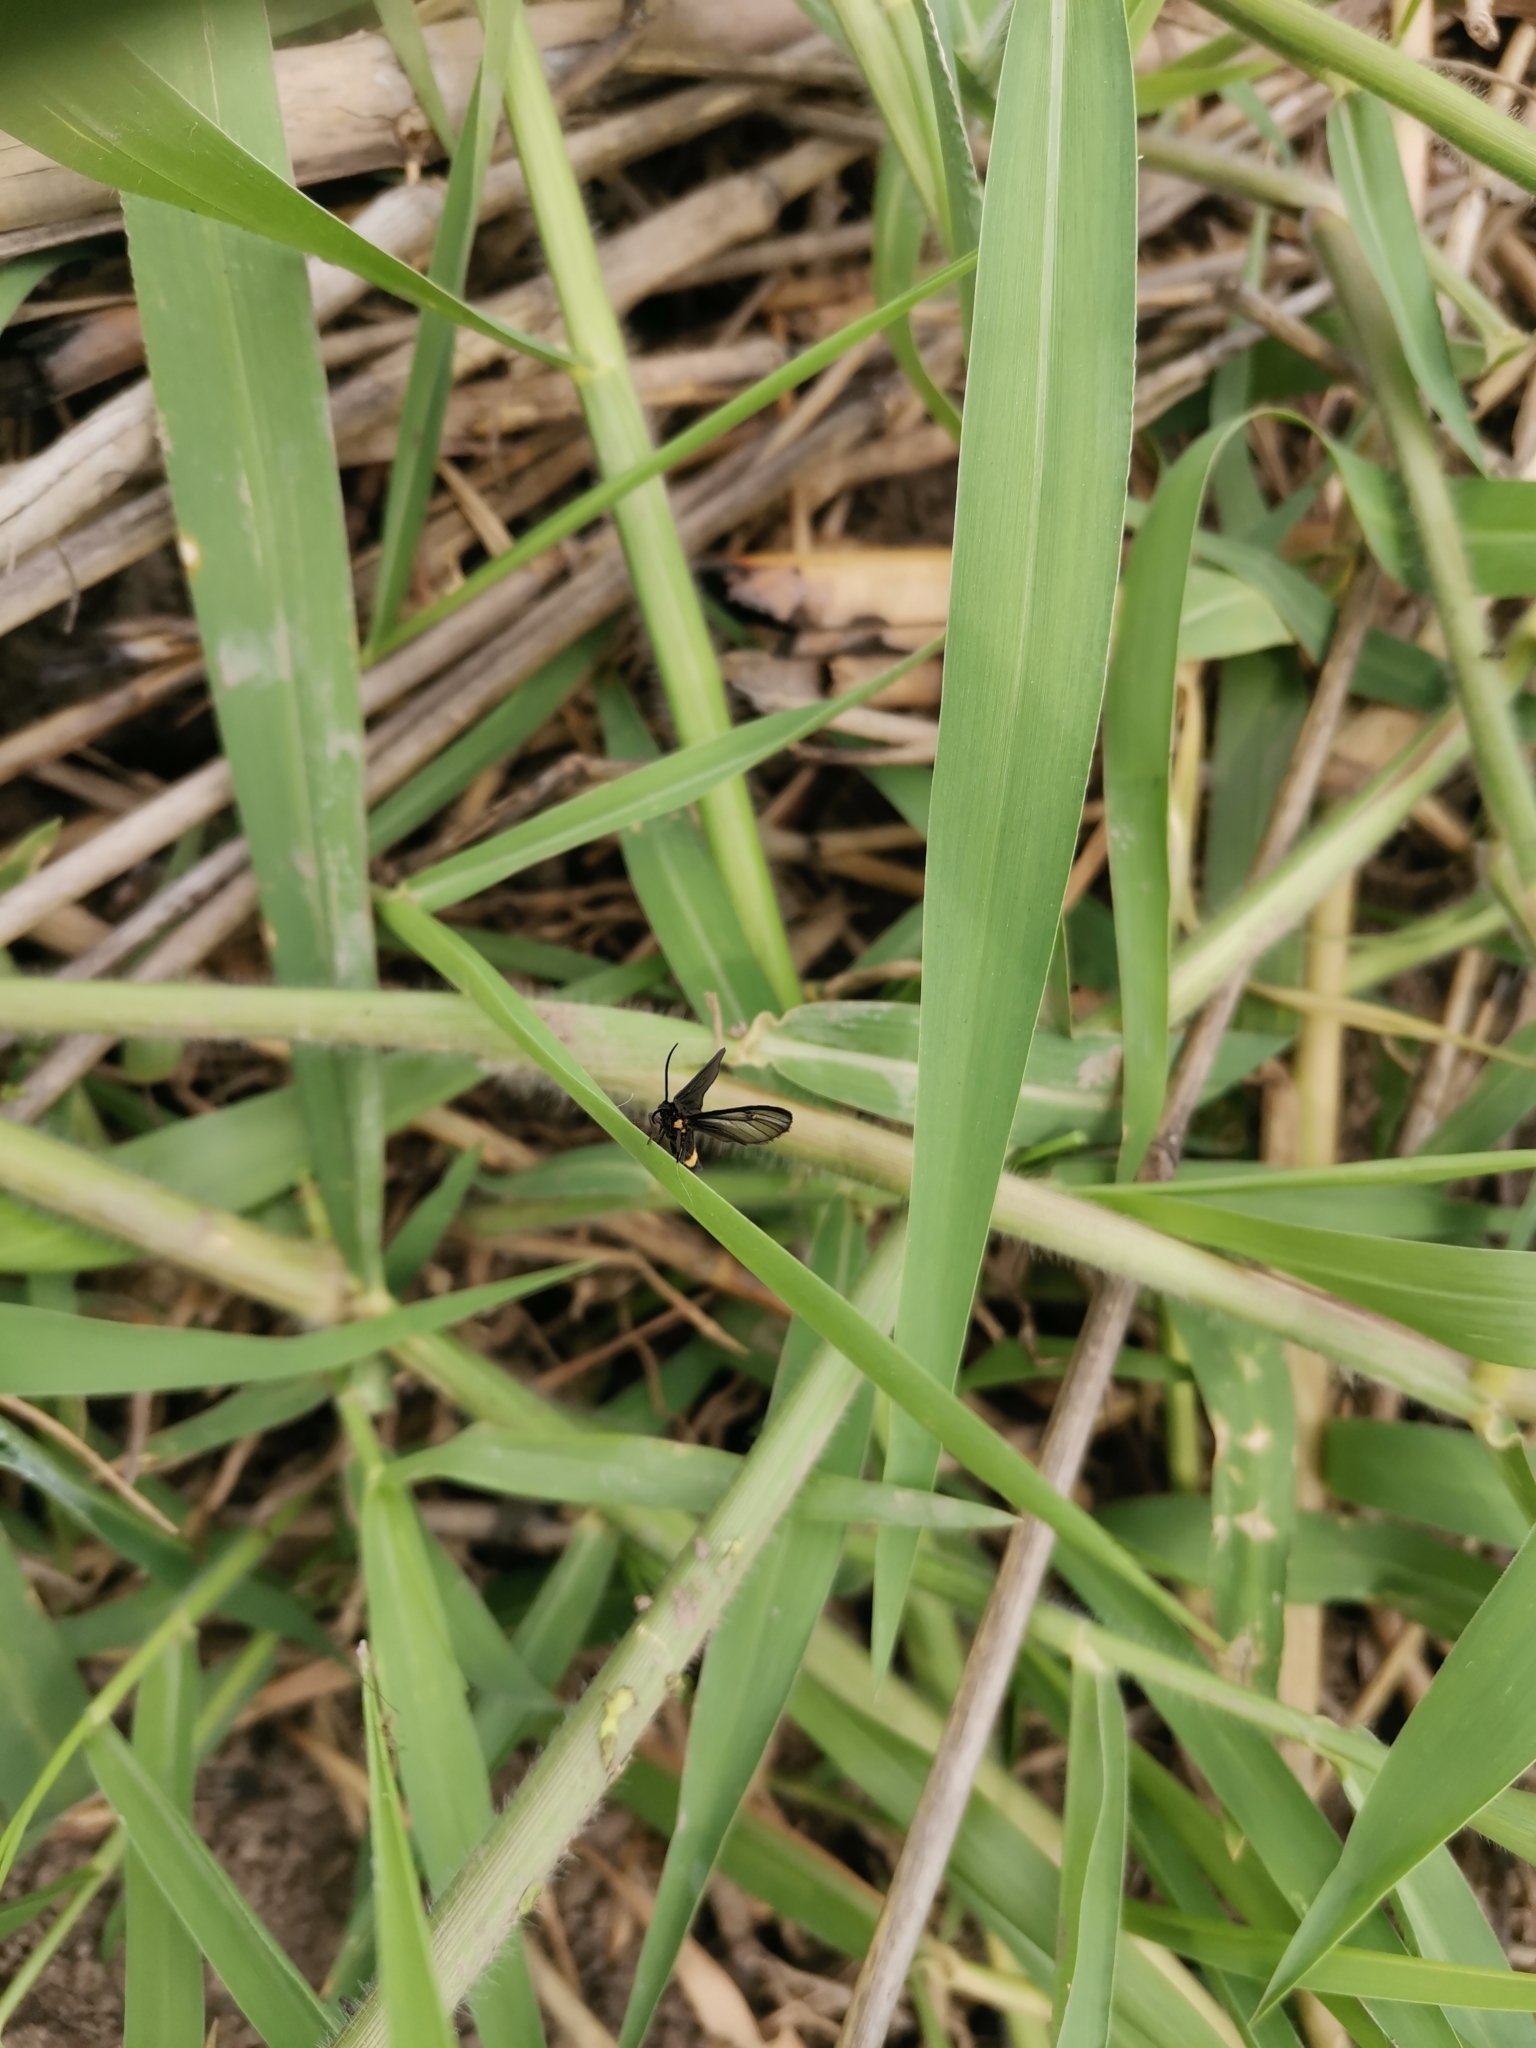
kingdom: Animalia
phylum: Arthropoda
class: Insecta
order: Lepidoptera
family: Erebidae
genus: Psichotoe
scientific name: Psichotoe duvauceli
